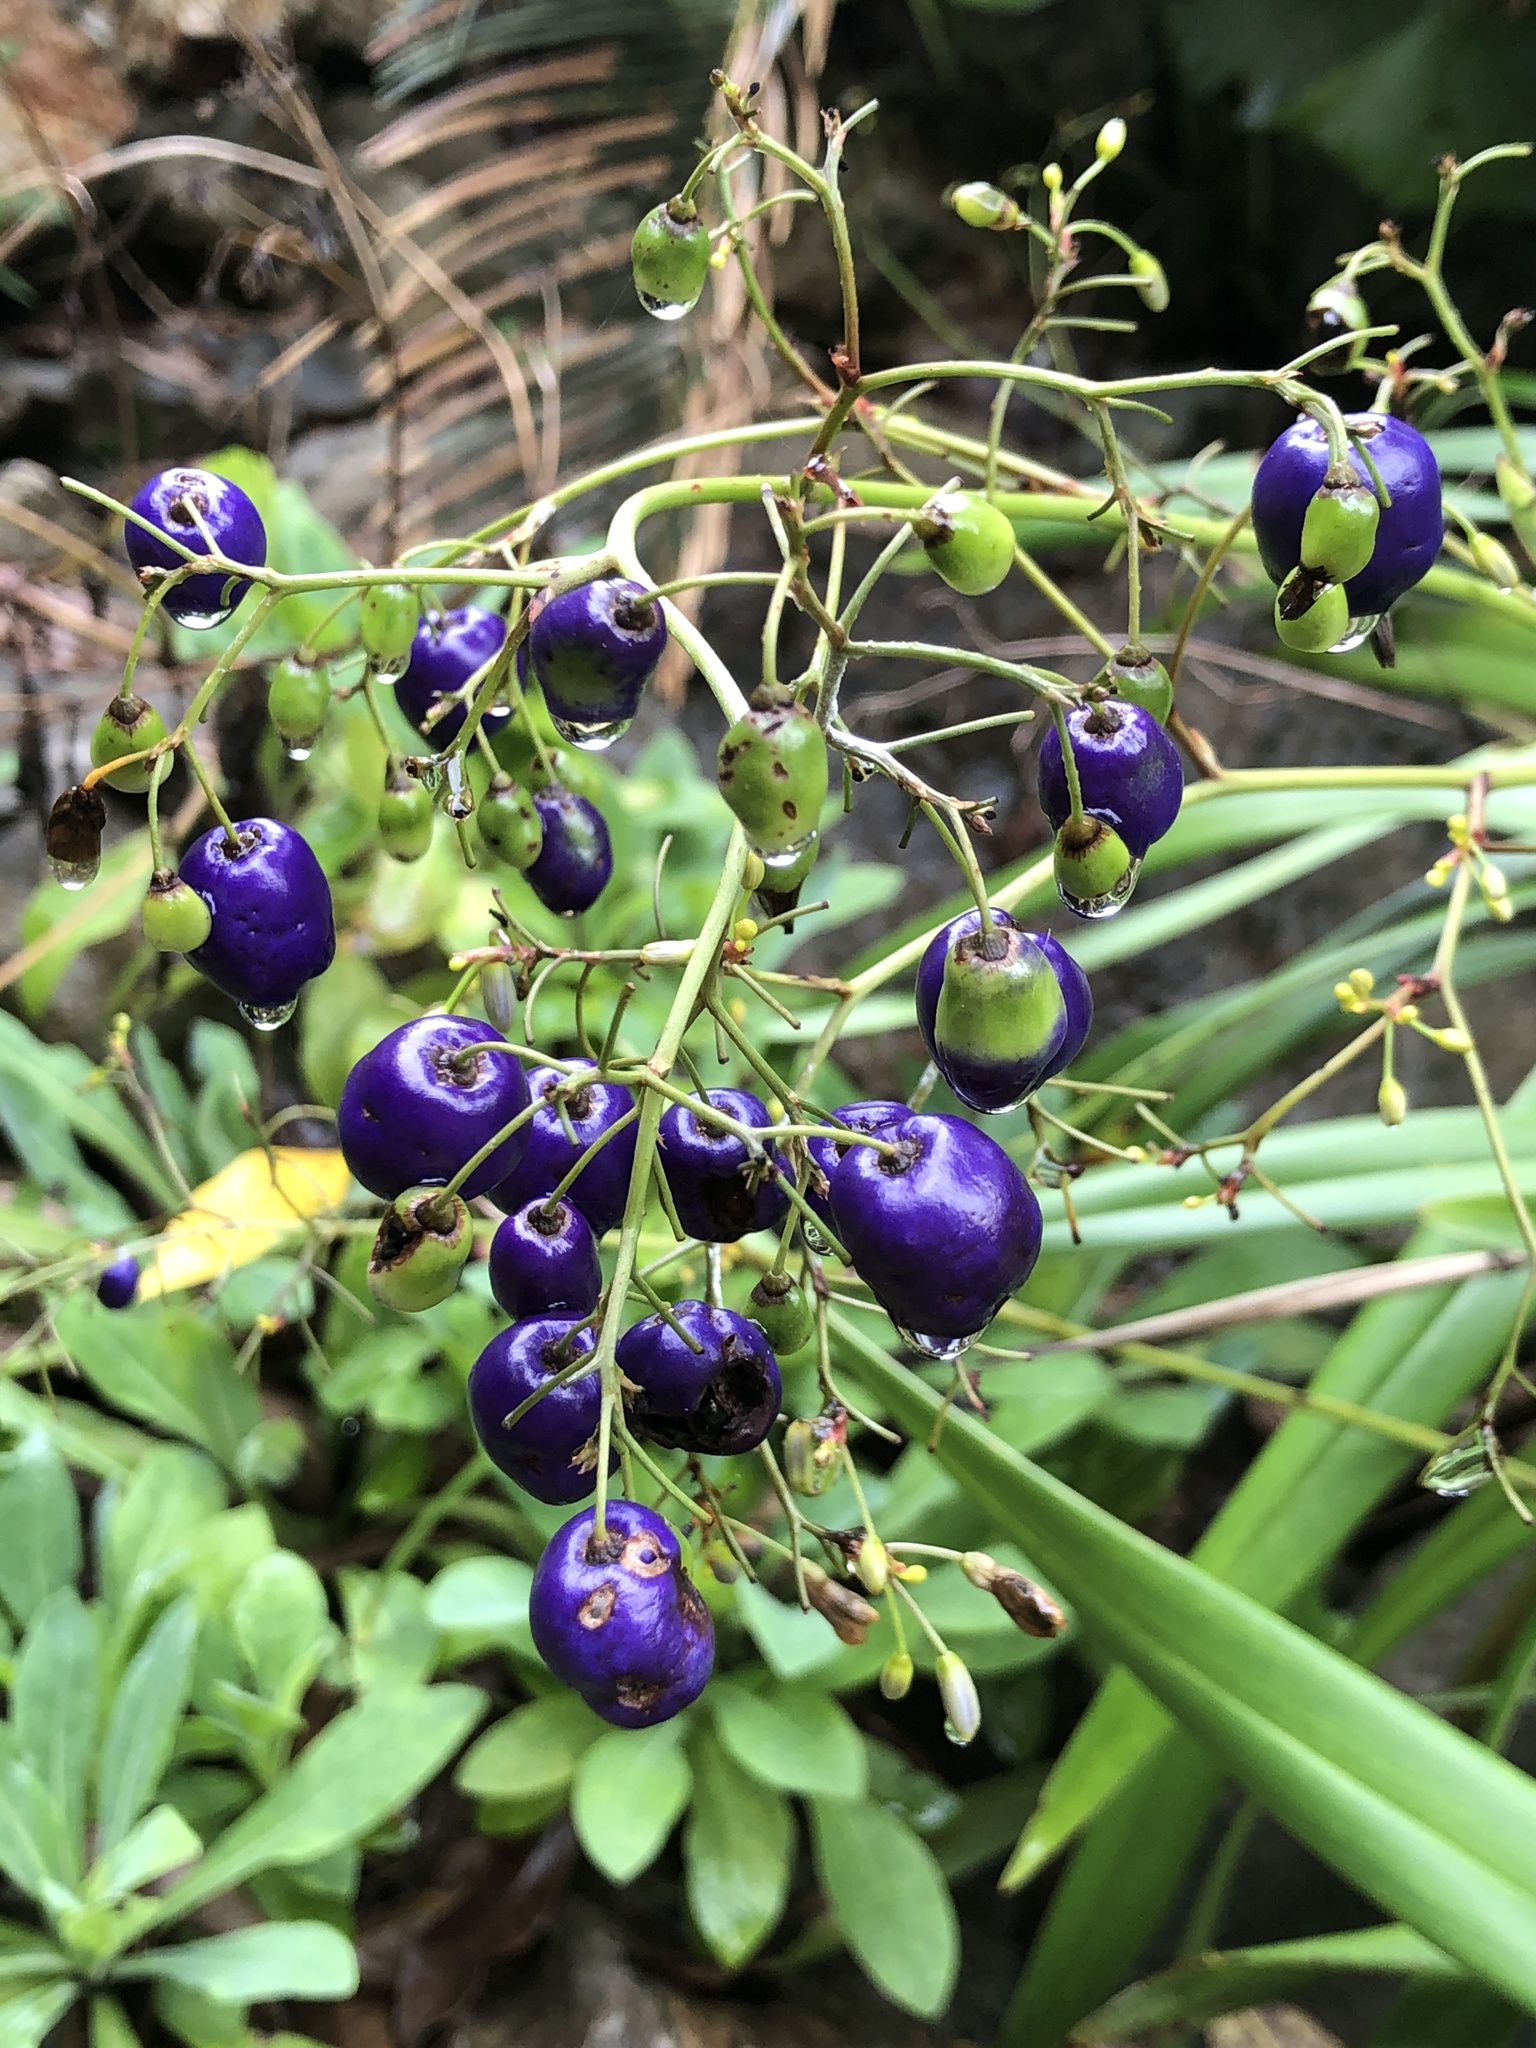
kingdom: Plantae
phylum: Tracheophyta
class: Liliopsida
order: Asparagales
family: Asphodelaceae
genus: Dianella
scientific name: Dianella ensifolia
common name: New zealand lilyplant
